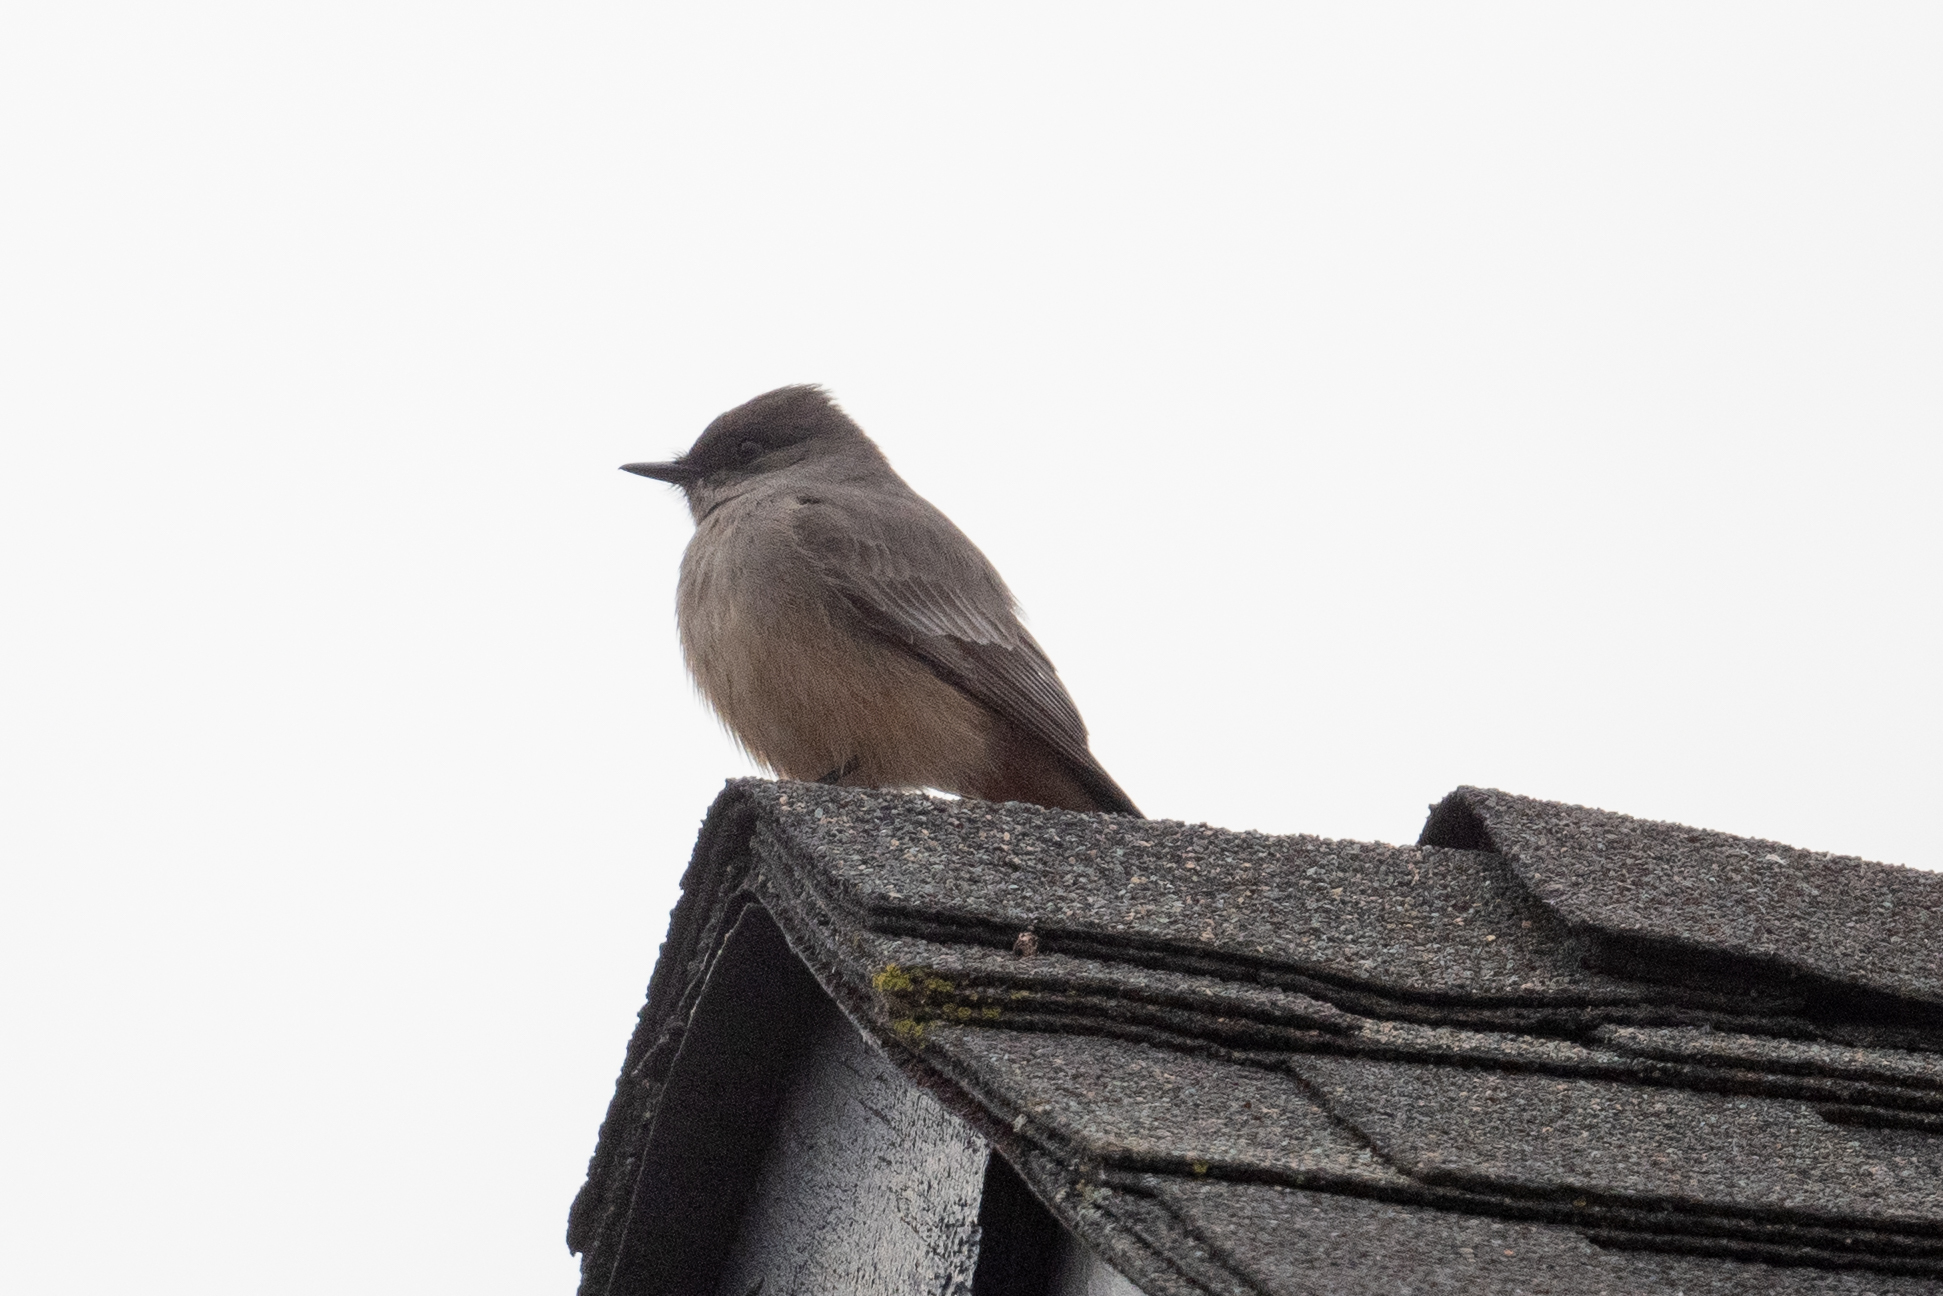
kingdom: Animalia
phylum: Chordata
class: Aves
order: Passeriformes
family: Tyrannidae
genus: Sayornis
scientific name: Sayornis saya
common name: Say's phoebe
